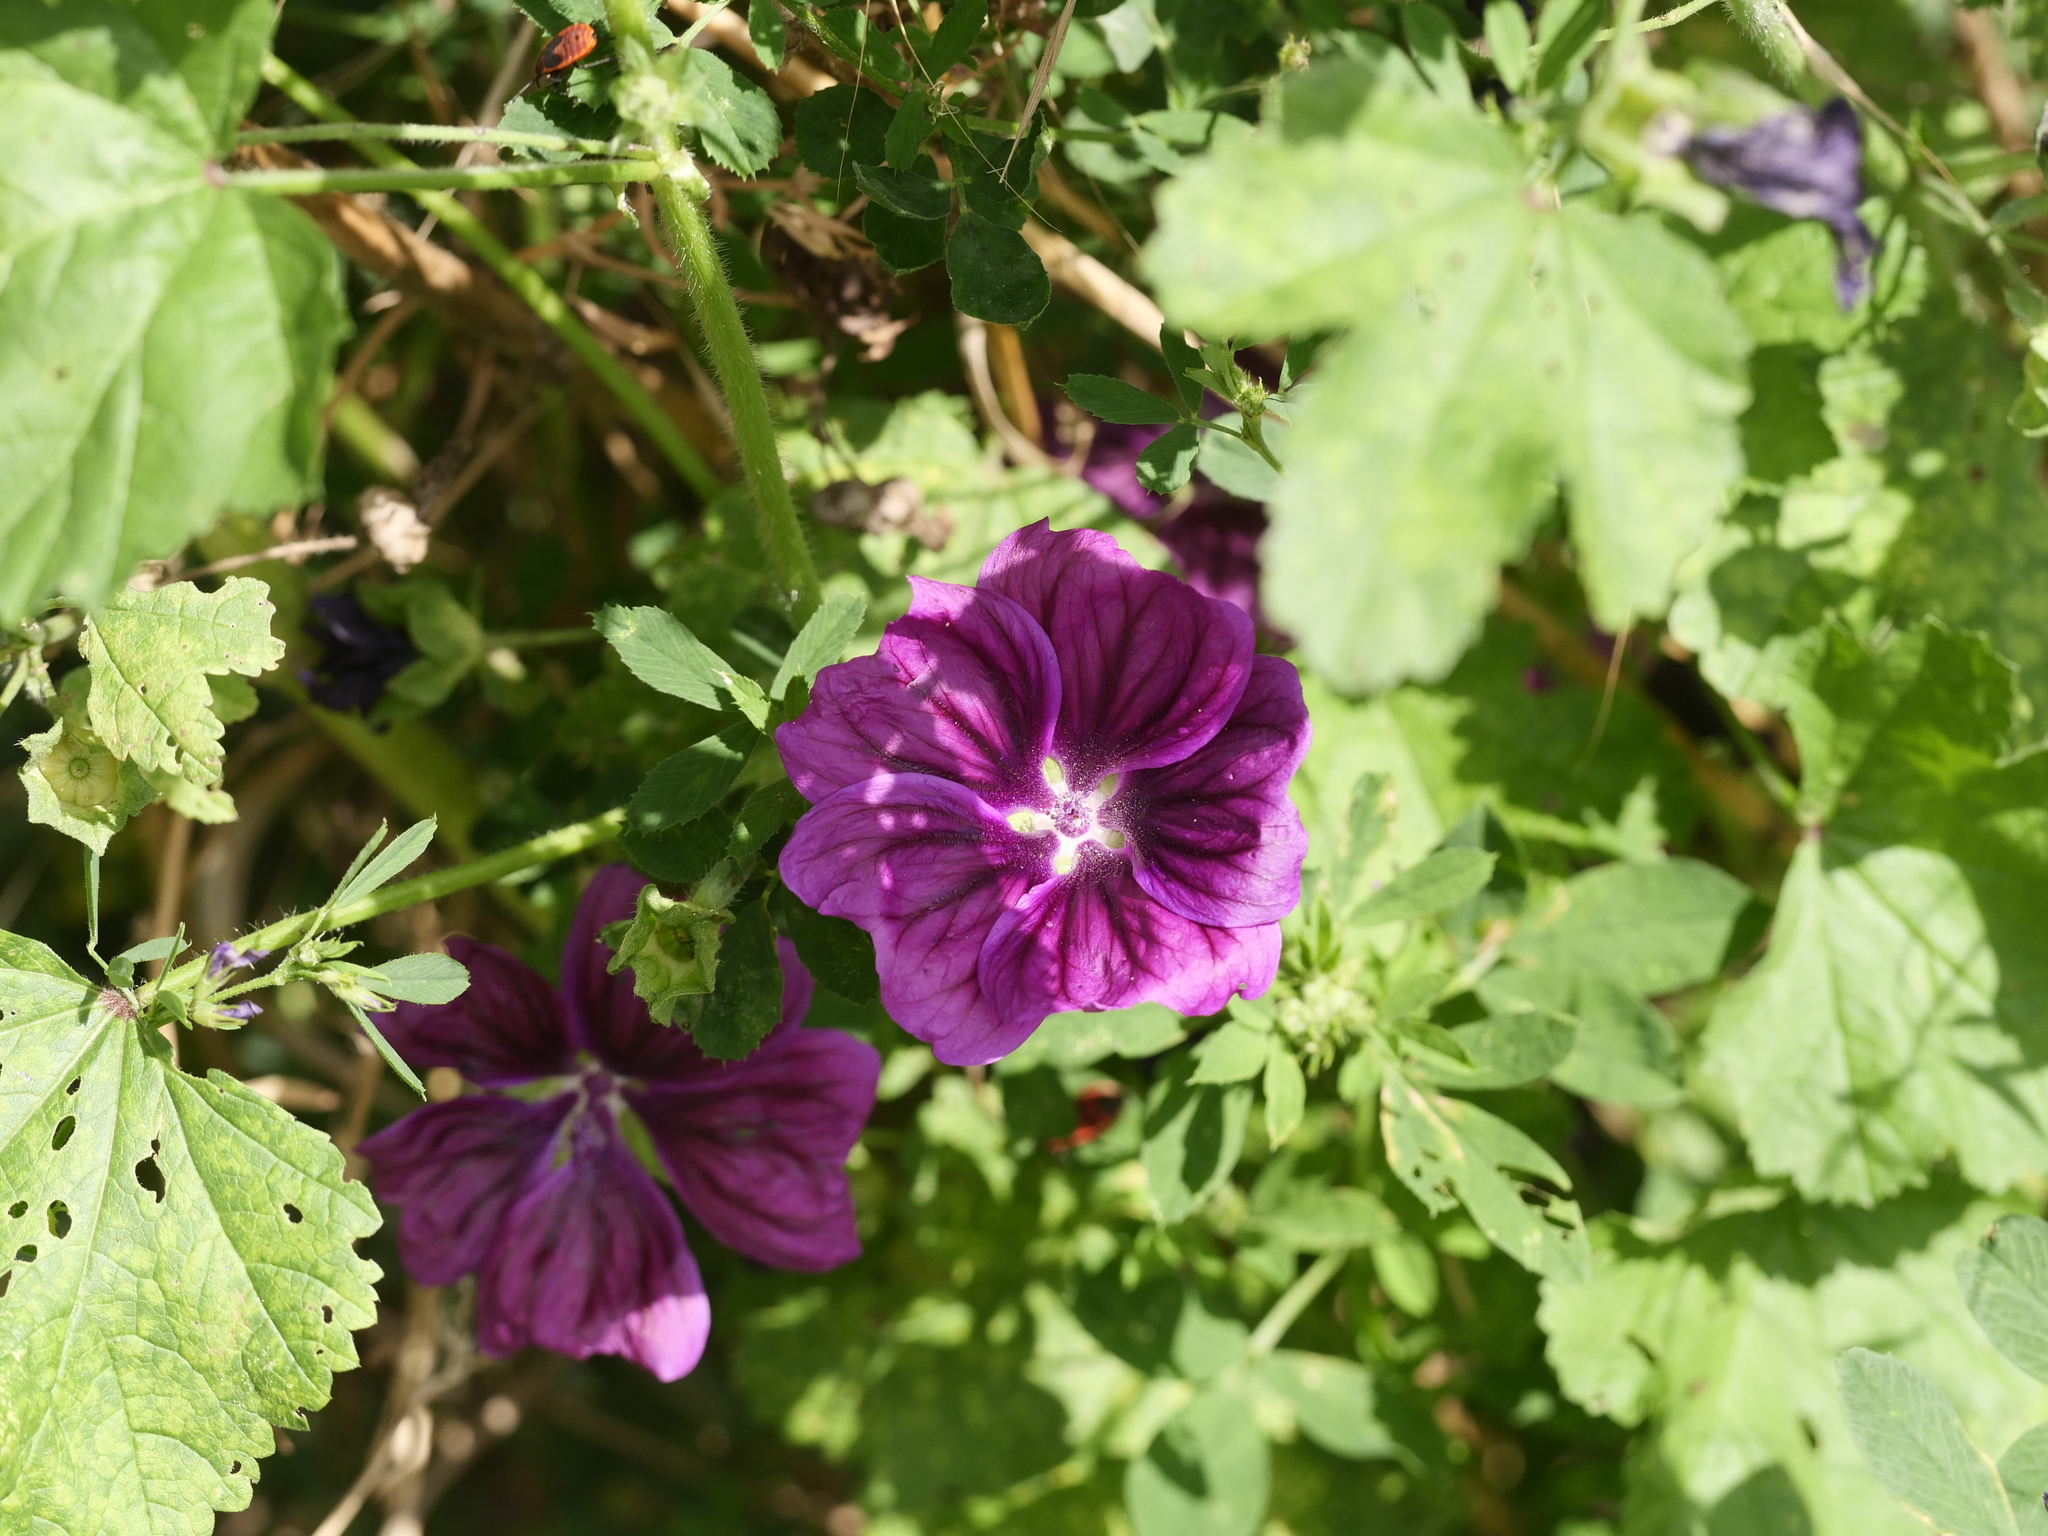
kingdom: Plantae
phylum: Tracheophyta
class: Magnoliopsida
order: Malvales
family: Malvaceae
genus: Malva
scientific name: Malva sylvestris
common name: Common mallow
